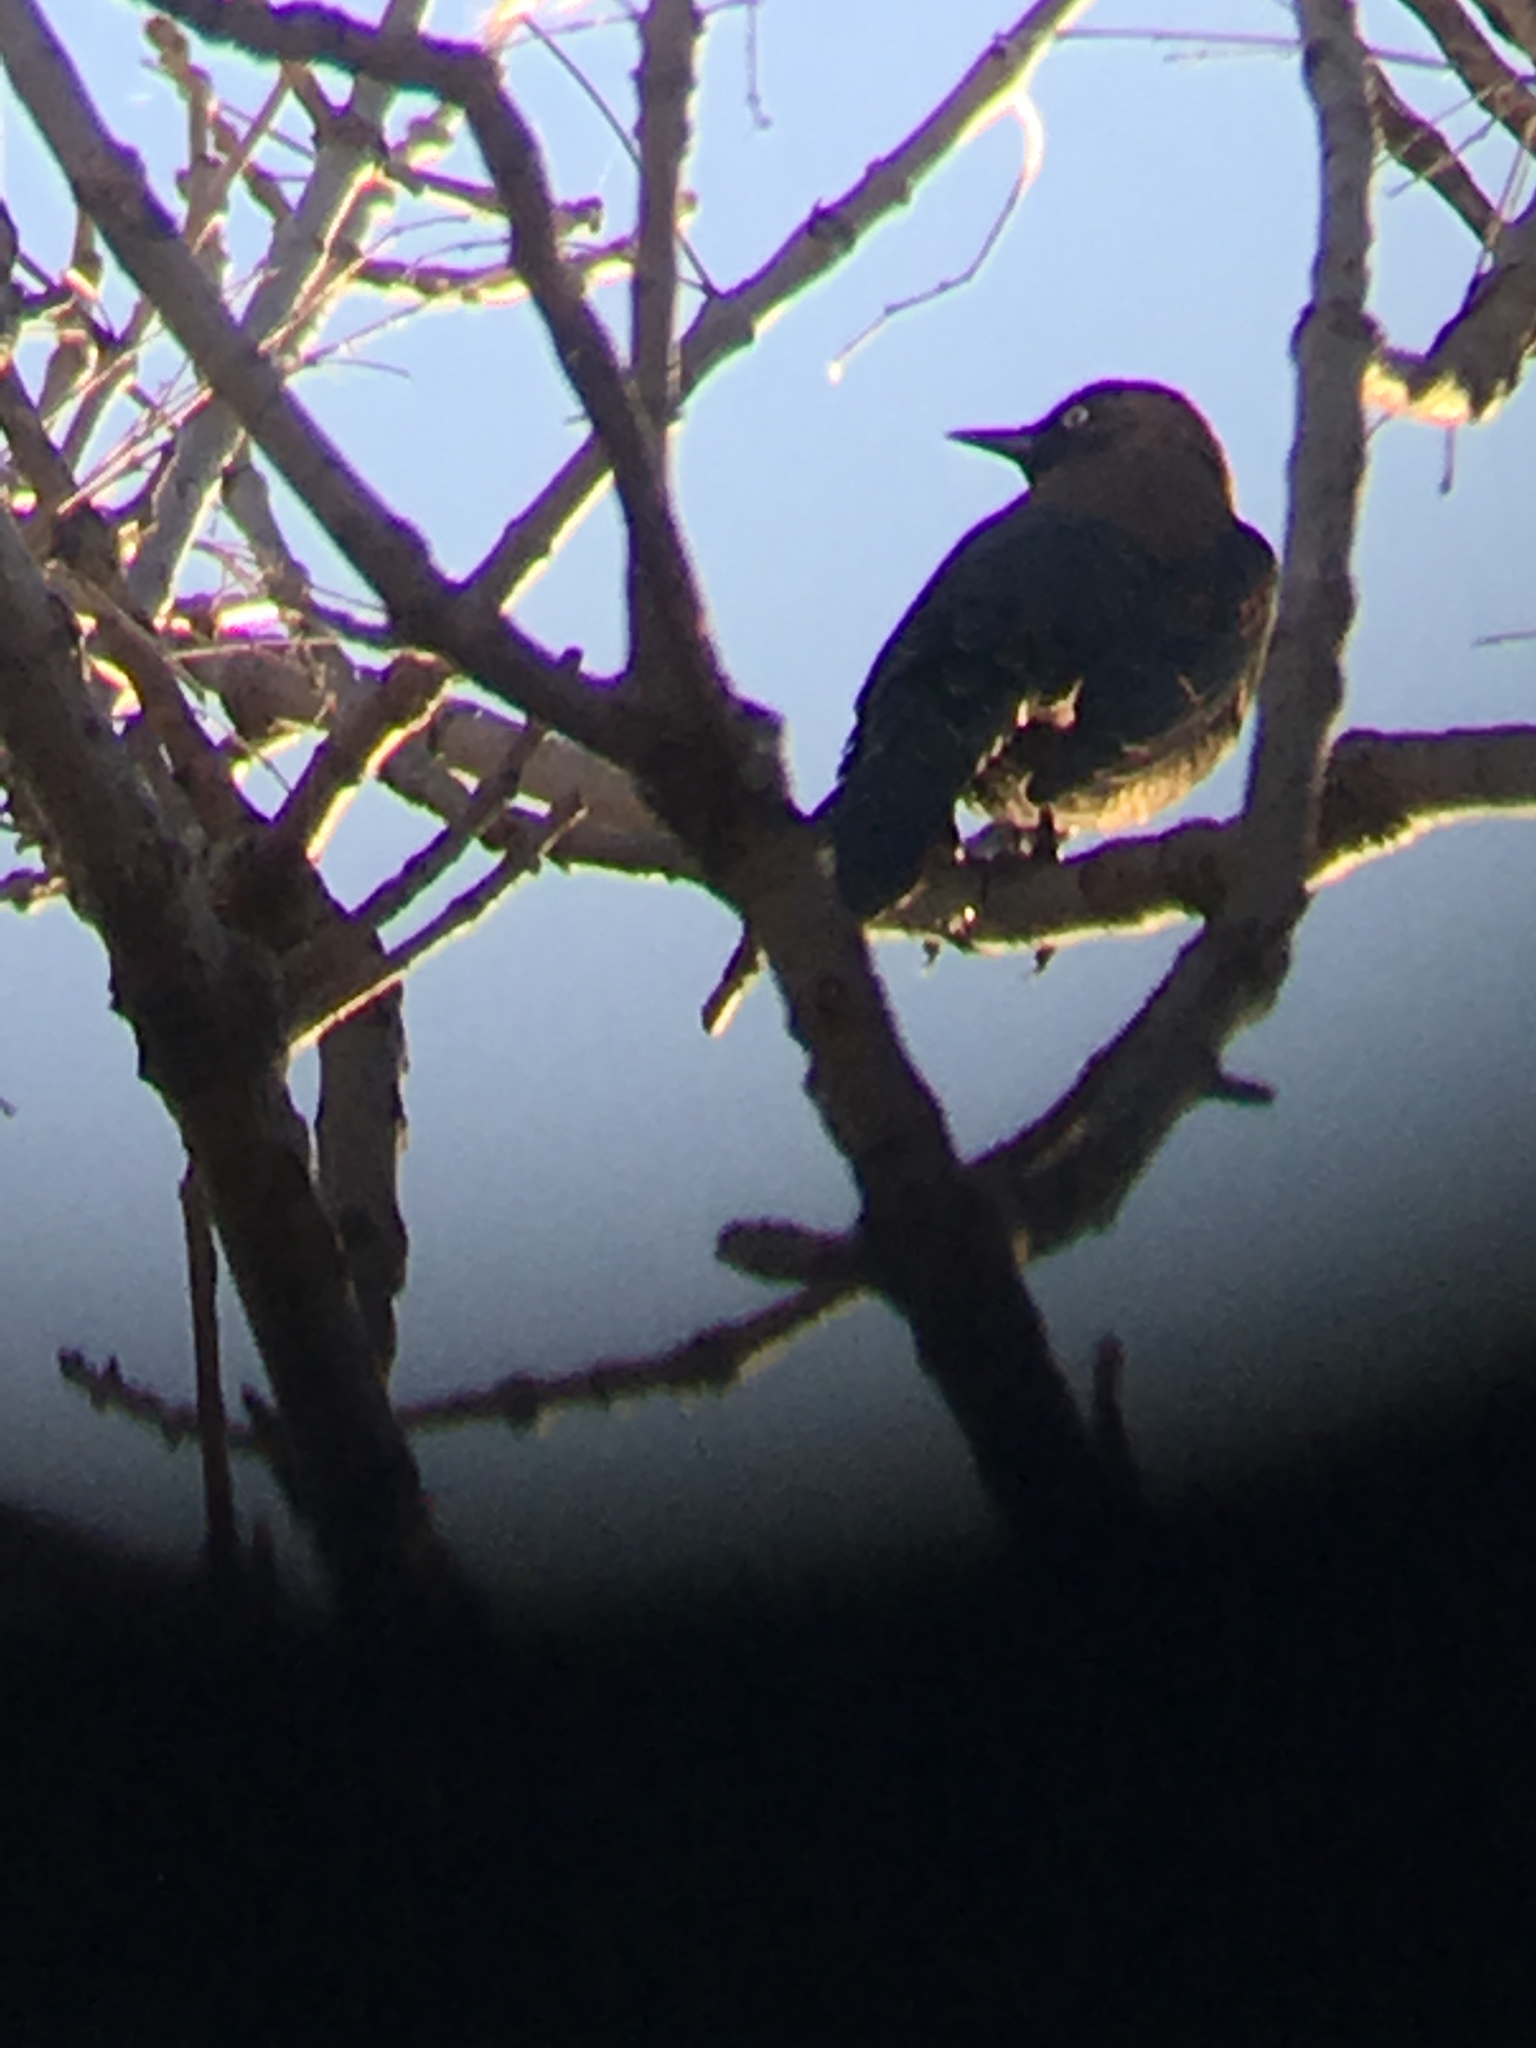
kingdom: Animalia
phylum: Chordata
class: Aves
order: Passeriformes
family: Icteridae
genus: Euphagus
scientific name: Euphagus carolinus
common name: Rusty blackbird
